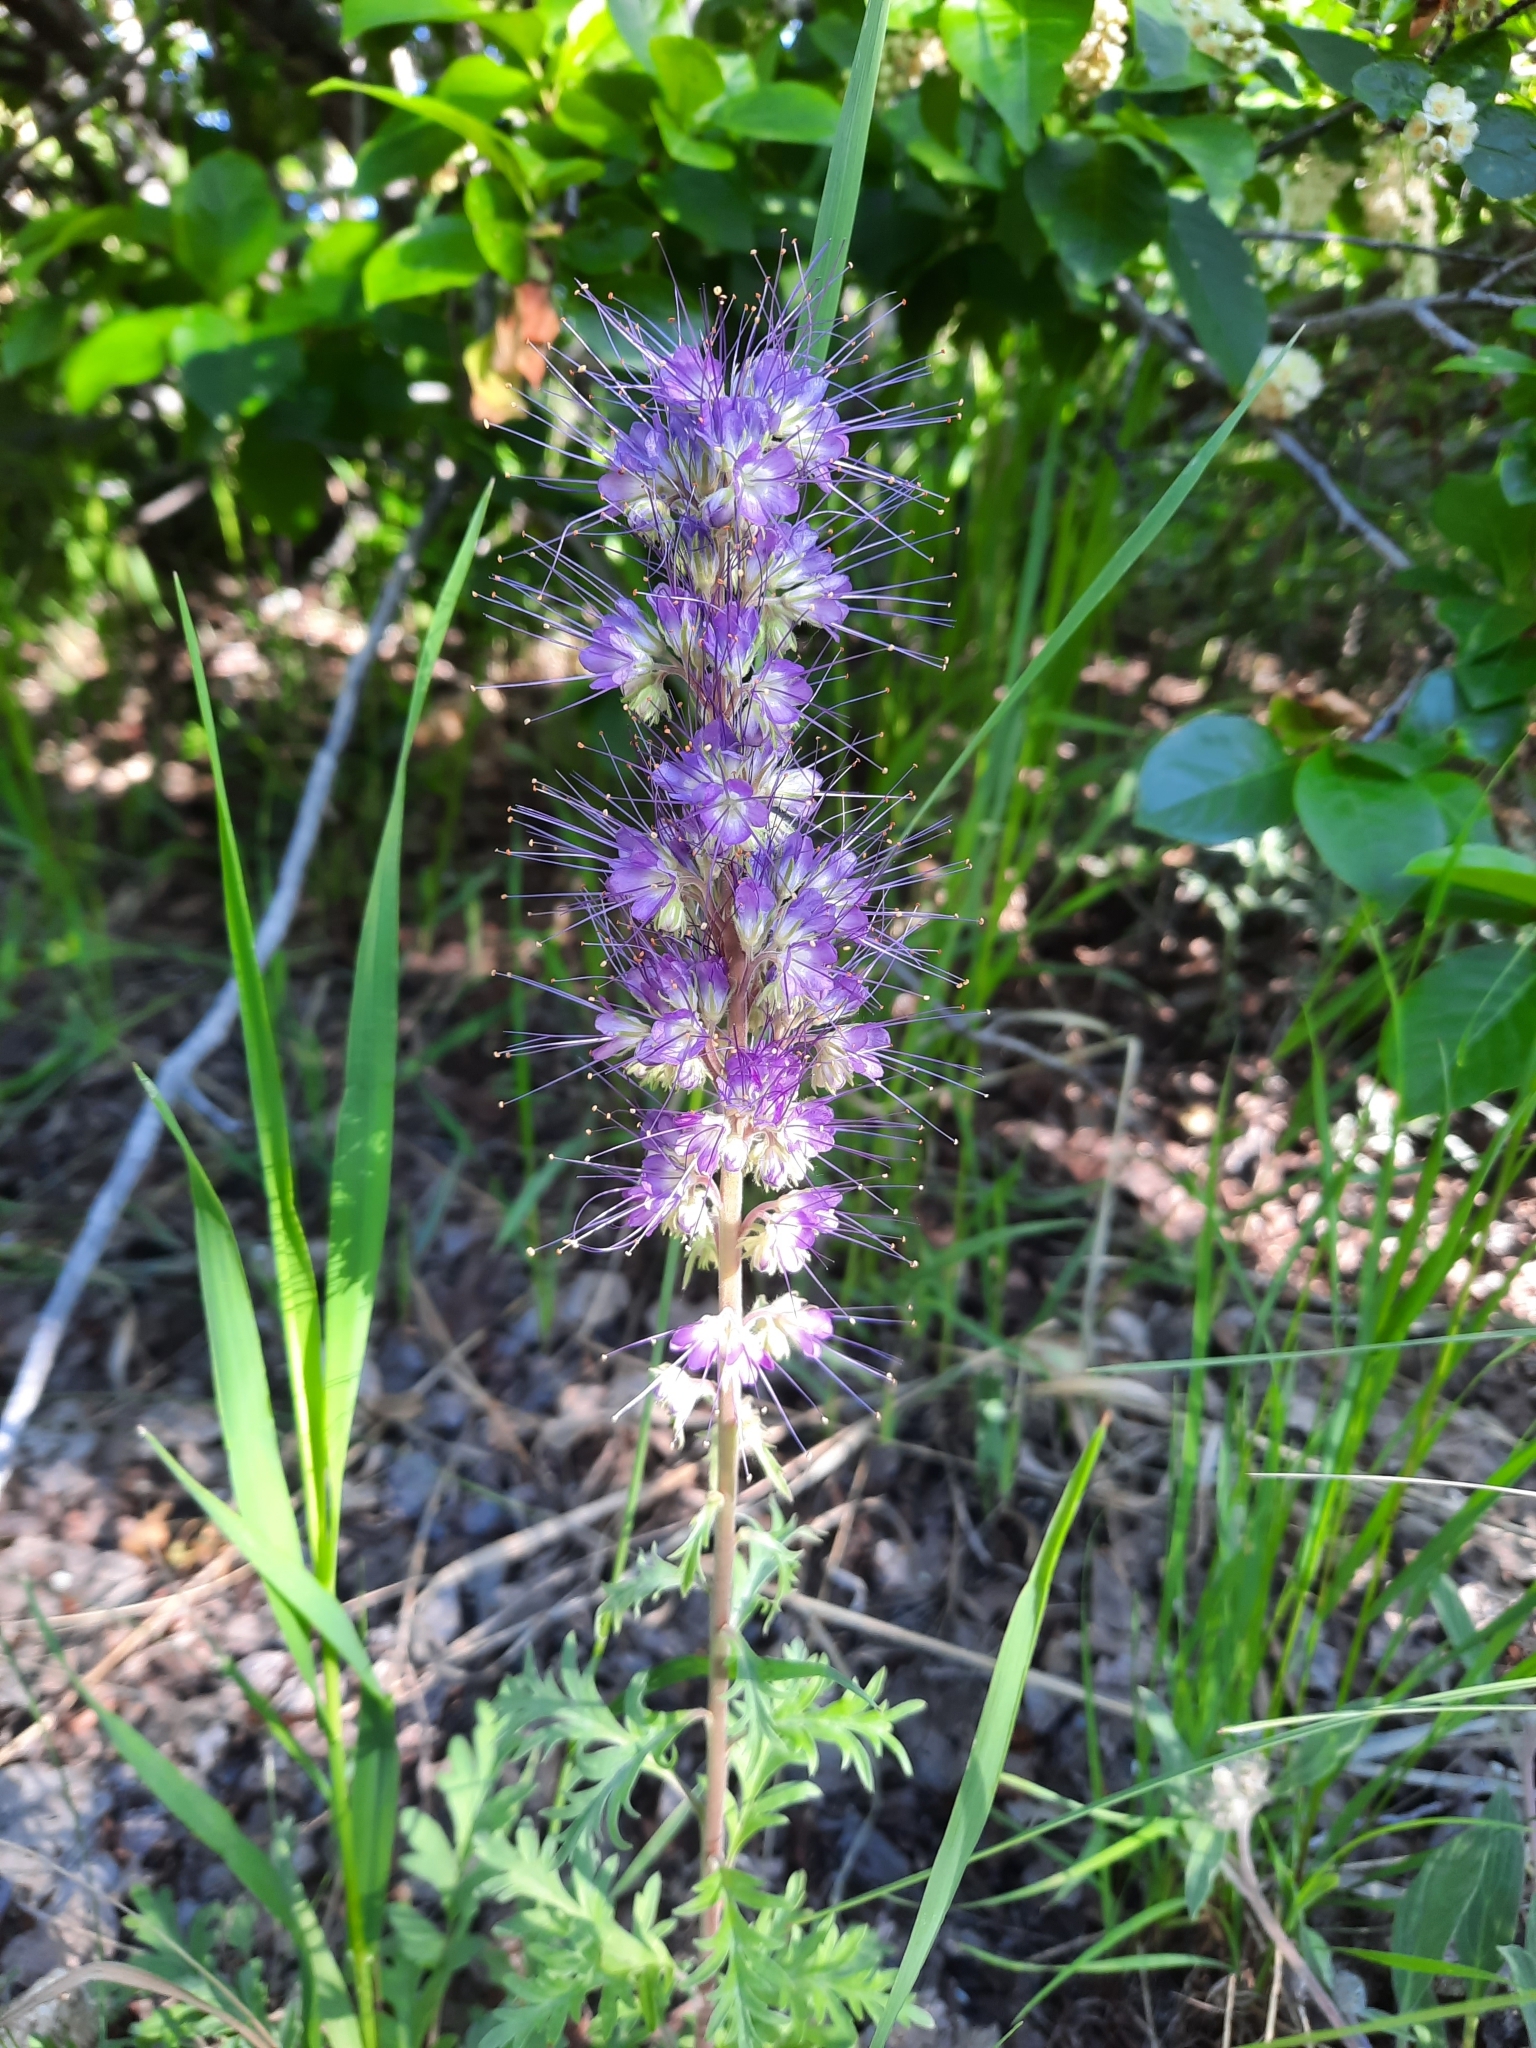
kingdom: Plantae
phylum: Tracheophyta
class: Magnoliopsida
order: Boraginales
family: Hydrophyllaceae
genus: Phacelia
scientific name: Phacelia sericea
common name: Silky phacelia
